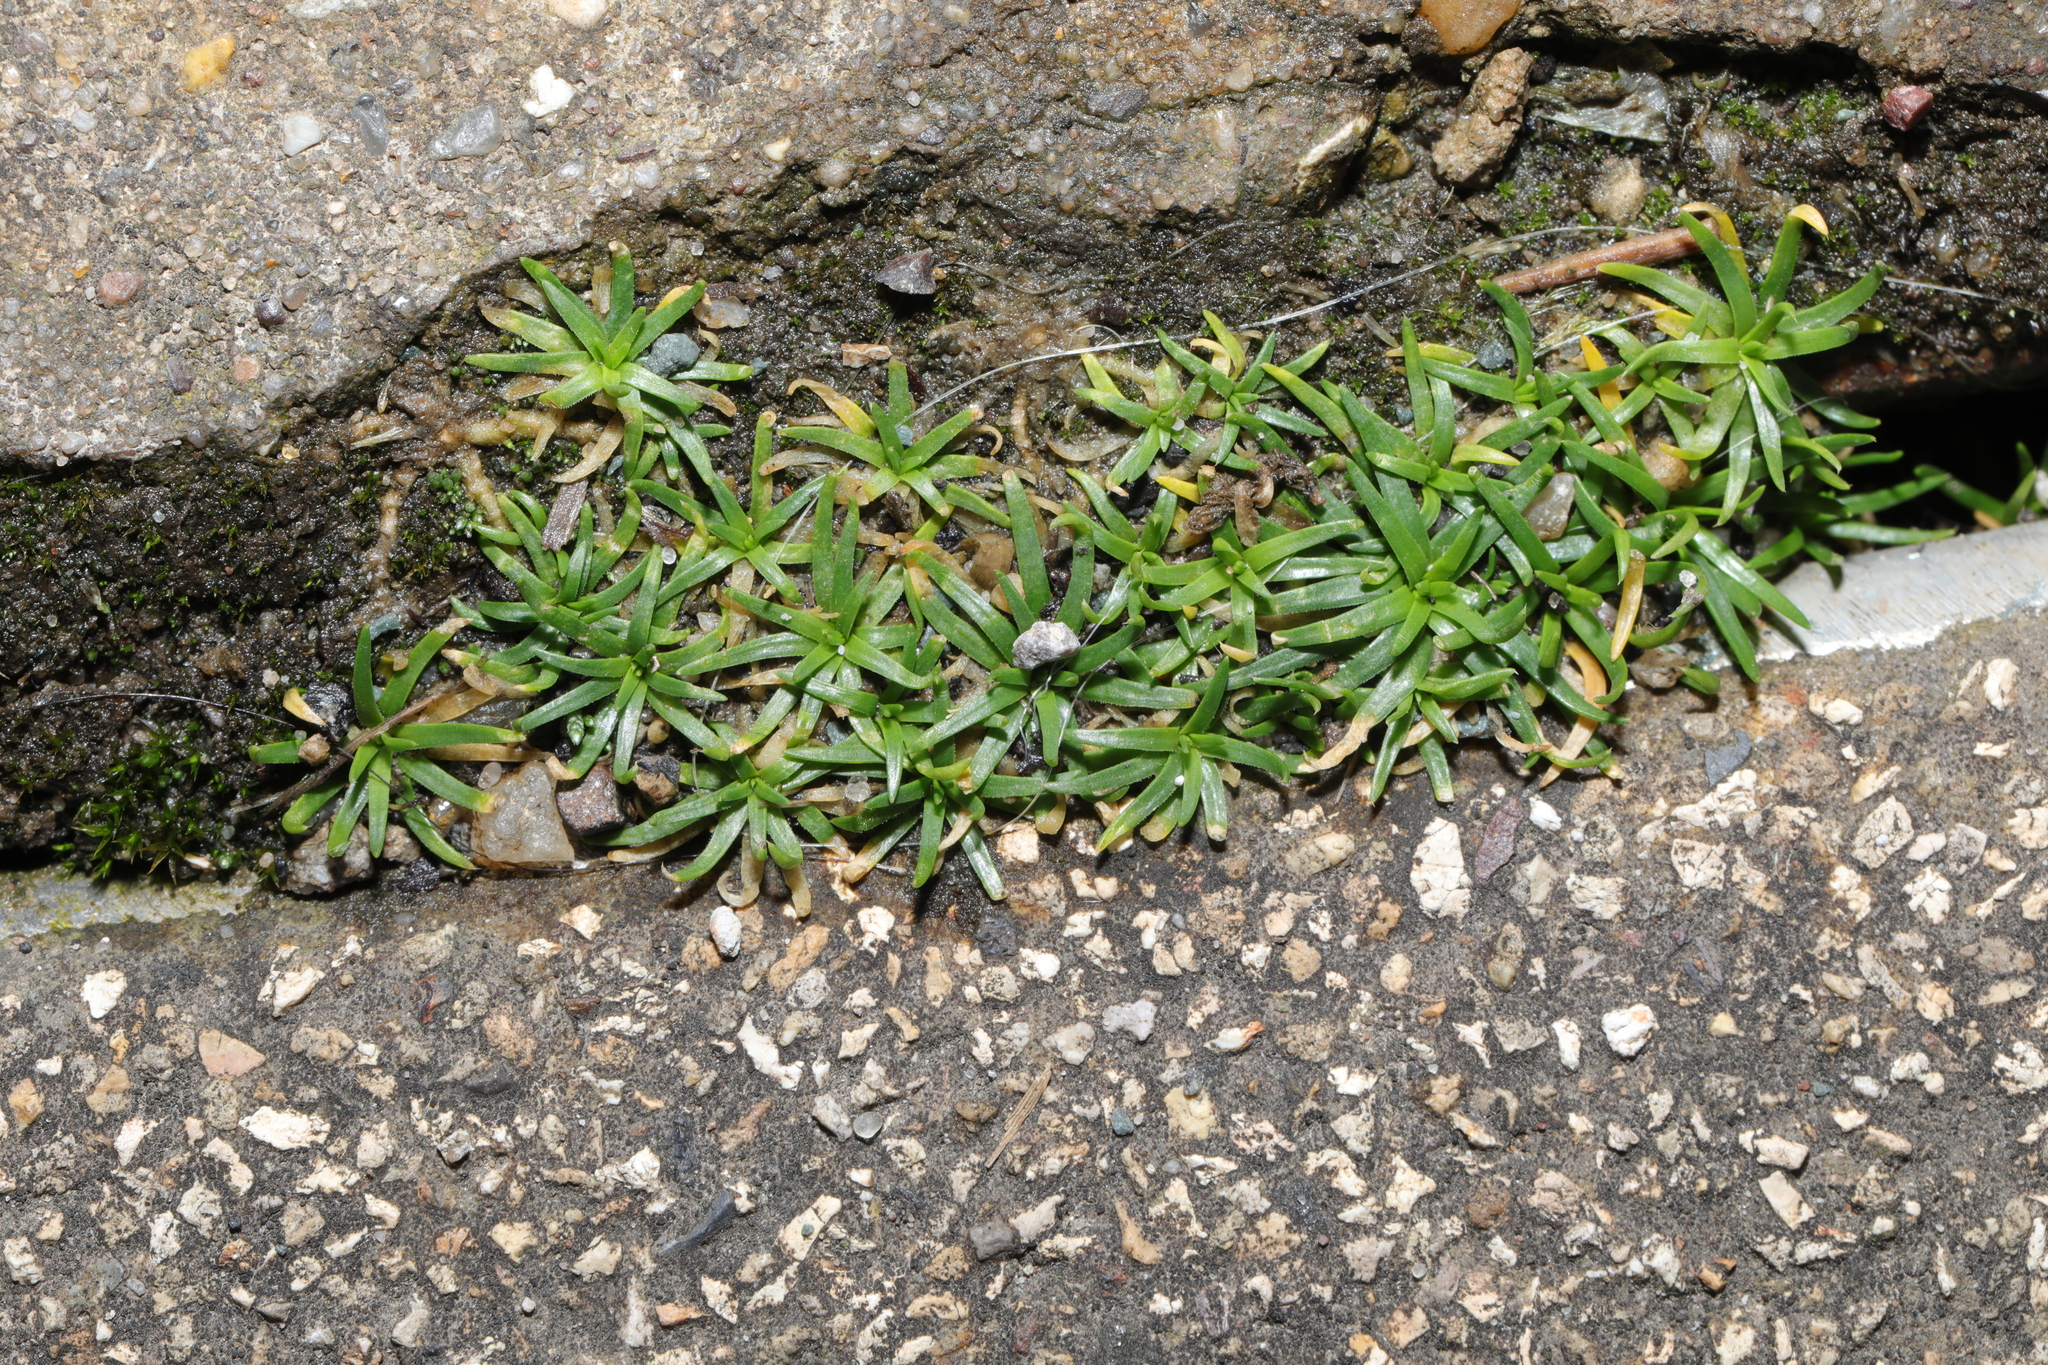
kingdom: Plantae
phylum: Tracheophyta
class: Magnoliopsida
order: Caryophyllales
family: Caryophyllaceae
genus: Sagina
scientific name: Sagina procumbens
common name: Procumbent pearlwort
